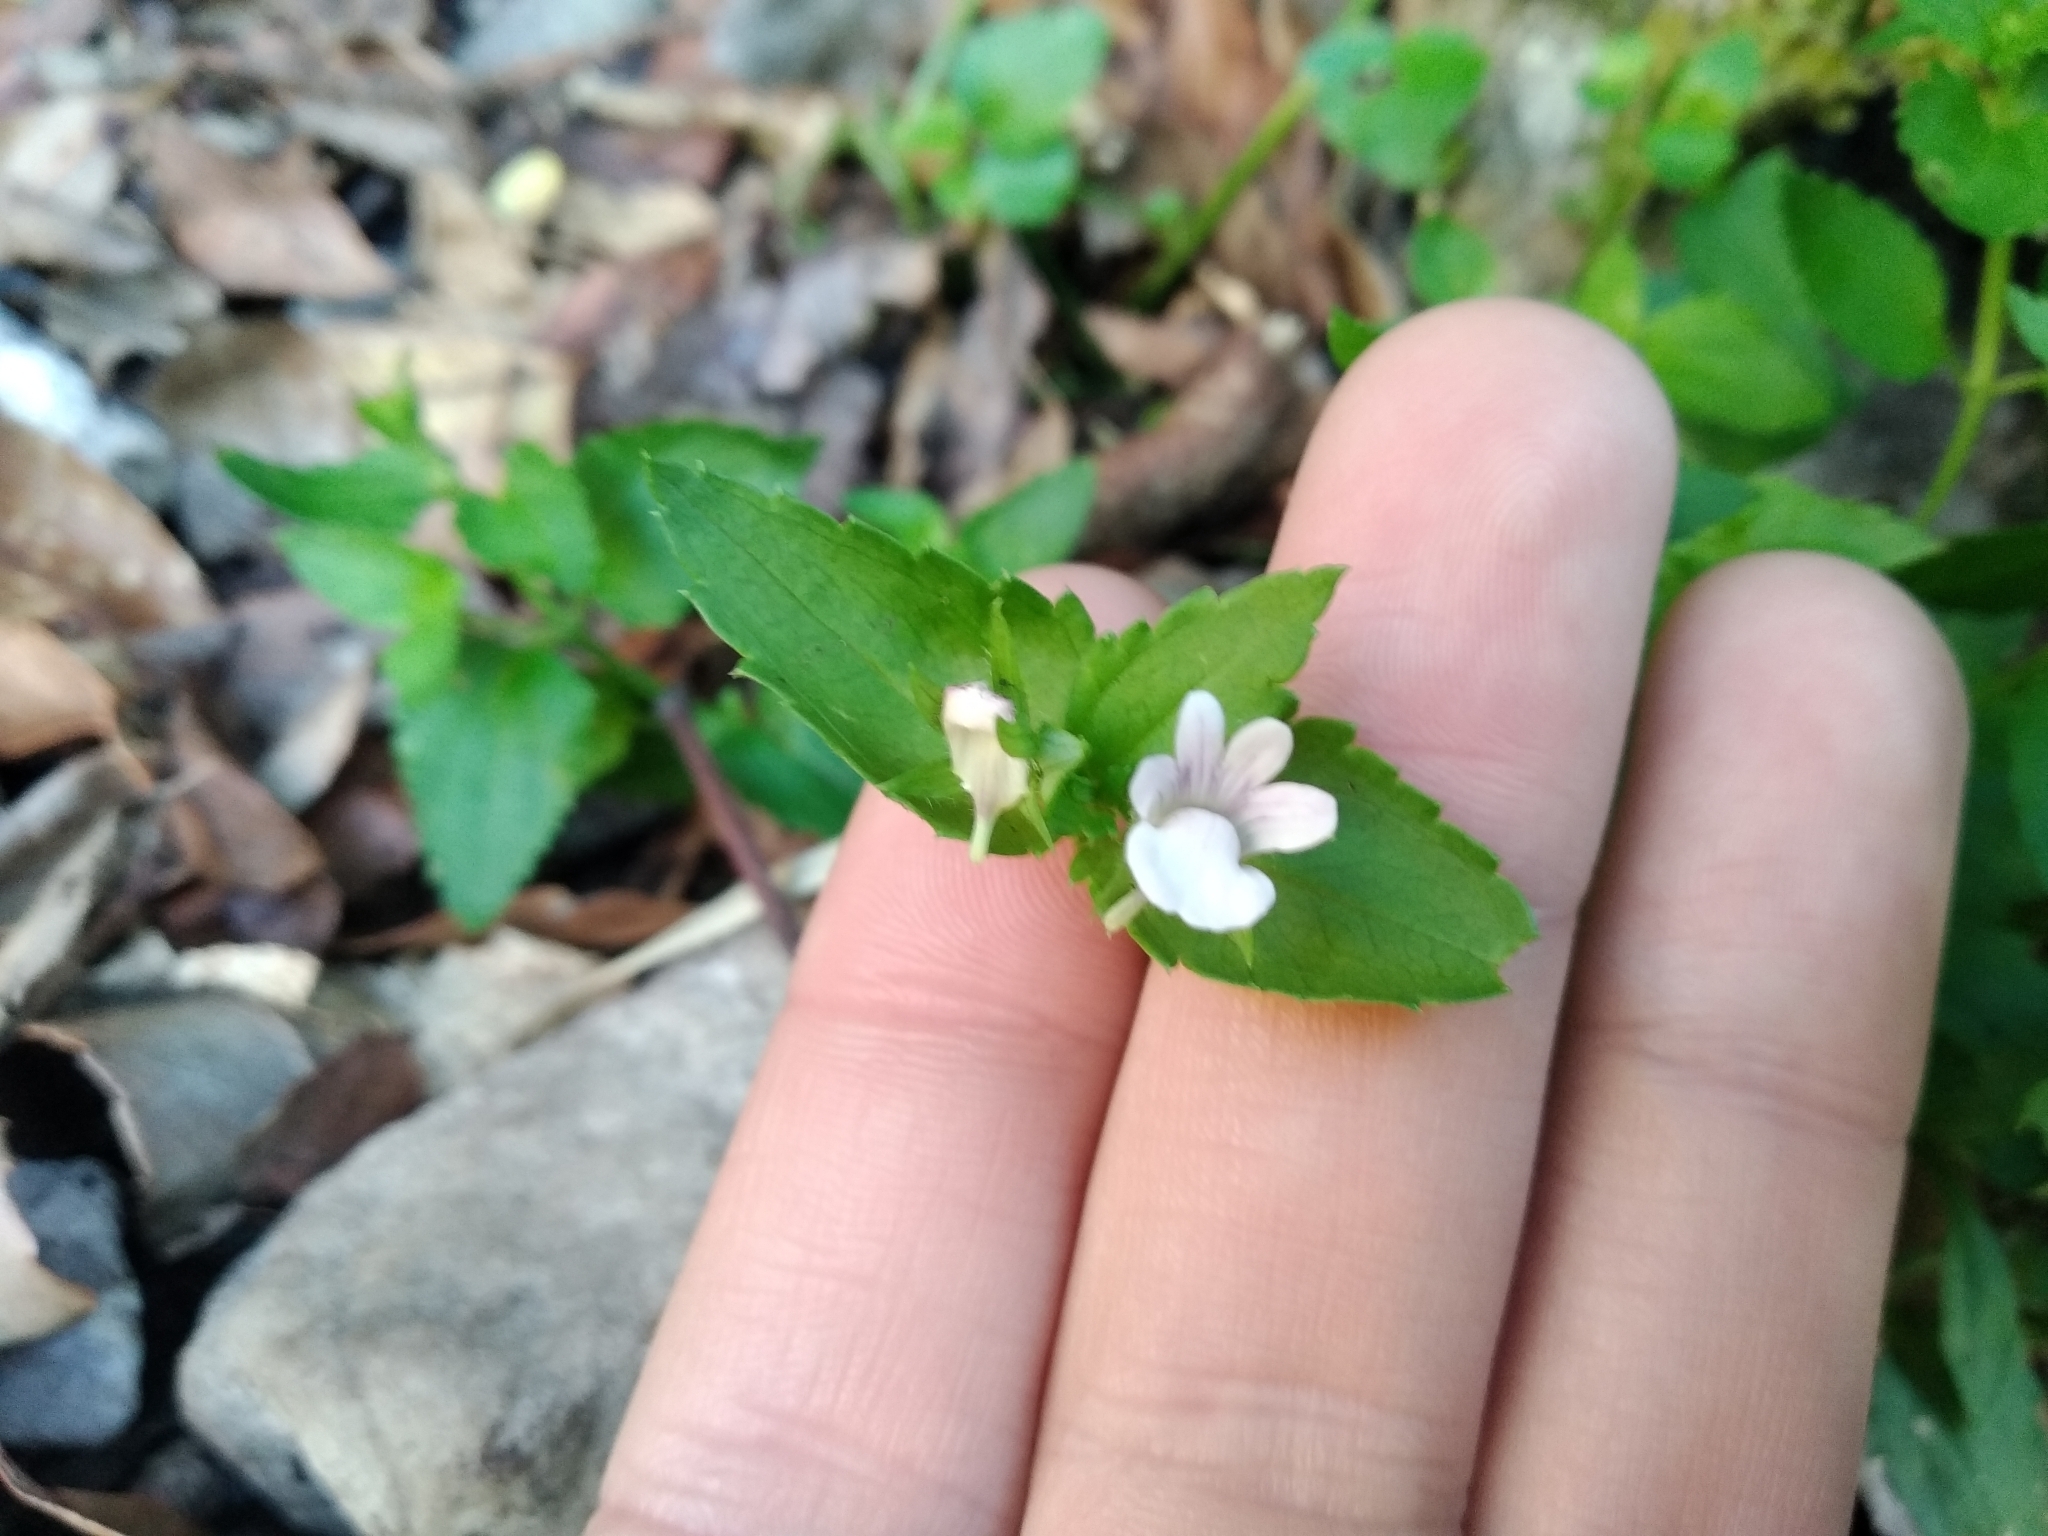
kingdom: Plantae
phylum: Tracheophyta
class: Magnoliopsida
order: Lamiales
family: Scrophulariaceae
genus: Nemesia
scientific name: Nemesia macrocarpa
